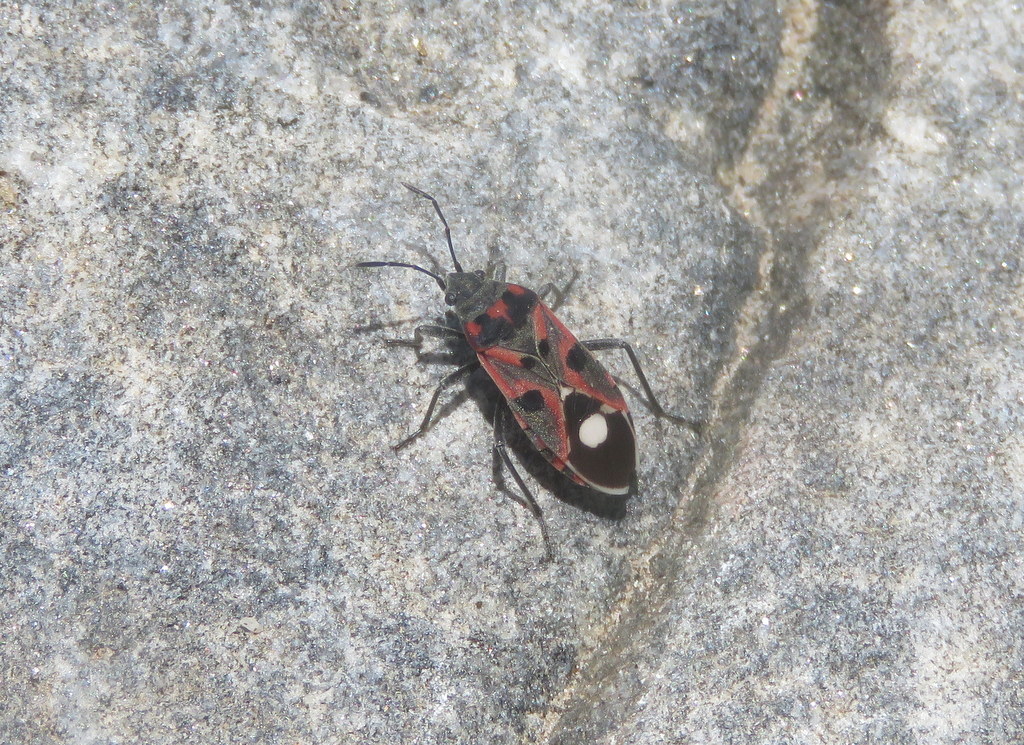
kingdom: Animalia
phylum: Arthropoda
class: Insecta
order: Hemiptera
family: Lygaeidae
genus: Lygaeus
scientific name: Lygaeus alboornatus
